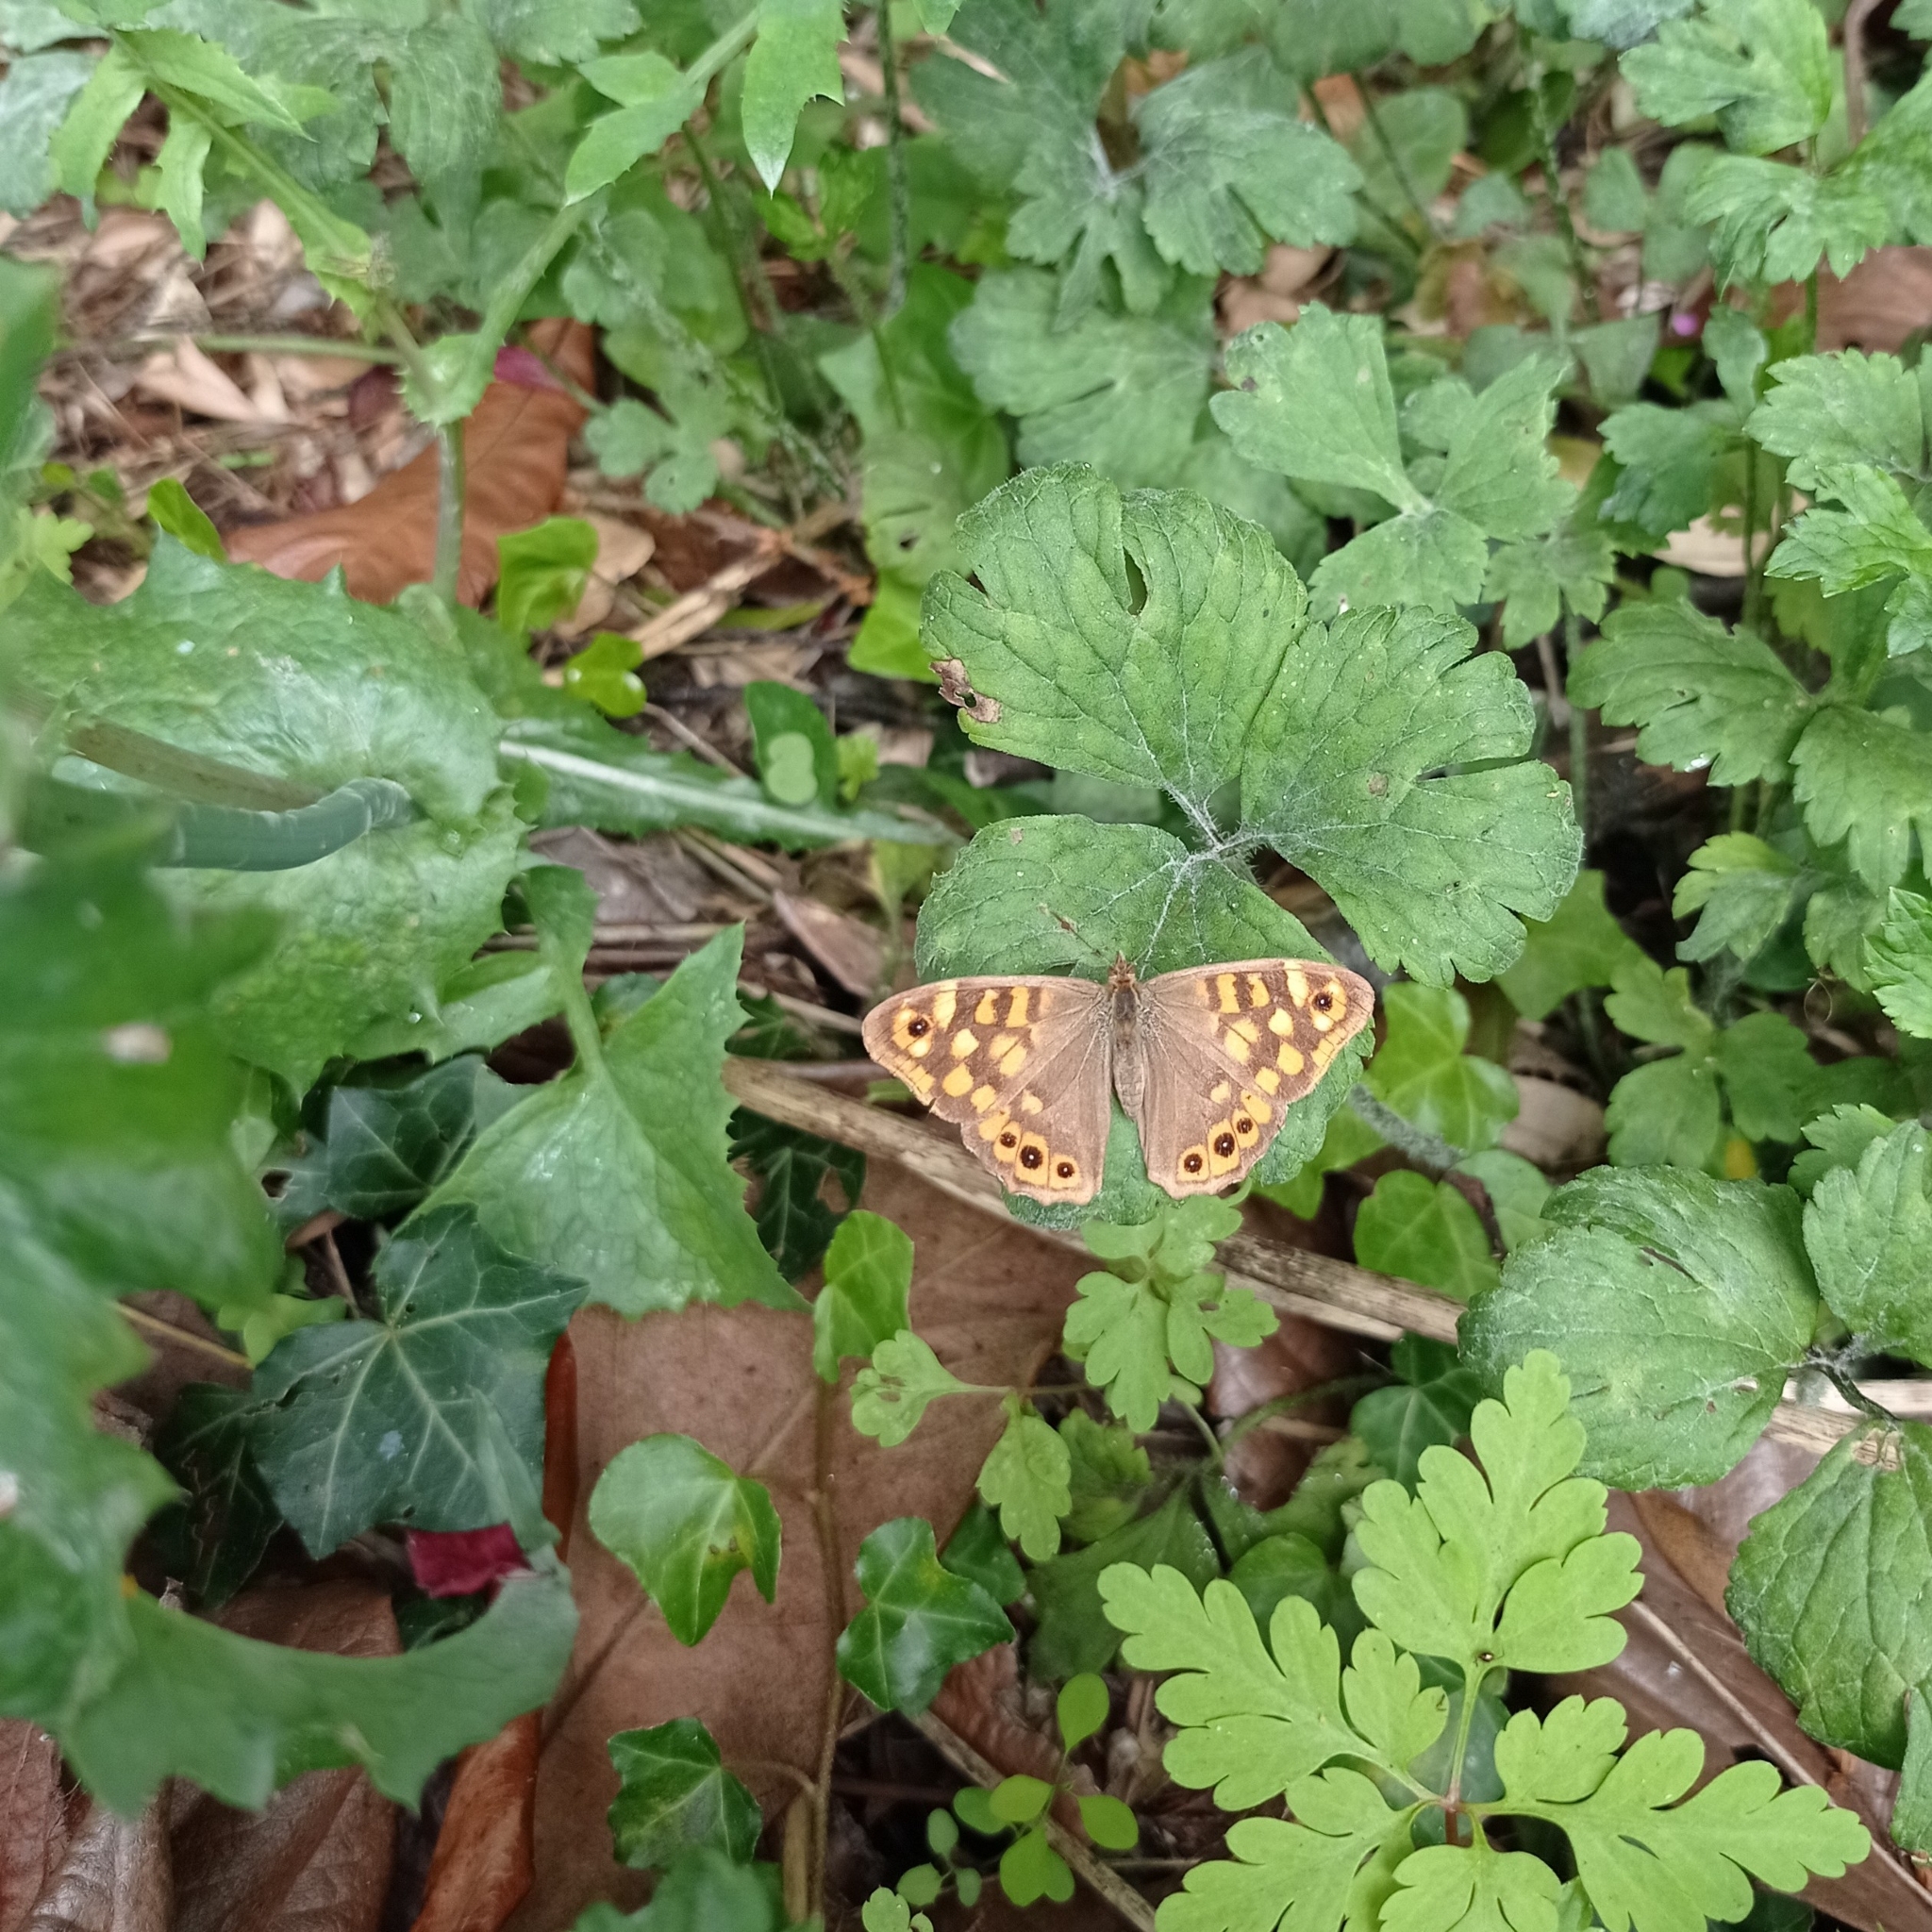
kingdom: Animalia
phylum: Arthropoda
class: Insecta
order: Lepidoptera
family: Nymphalidae
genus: Pararge
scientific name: Pararge aegeria
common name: Speckled wood
